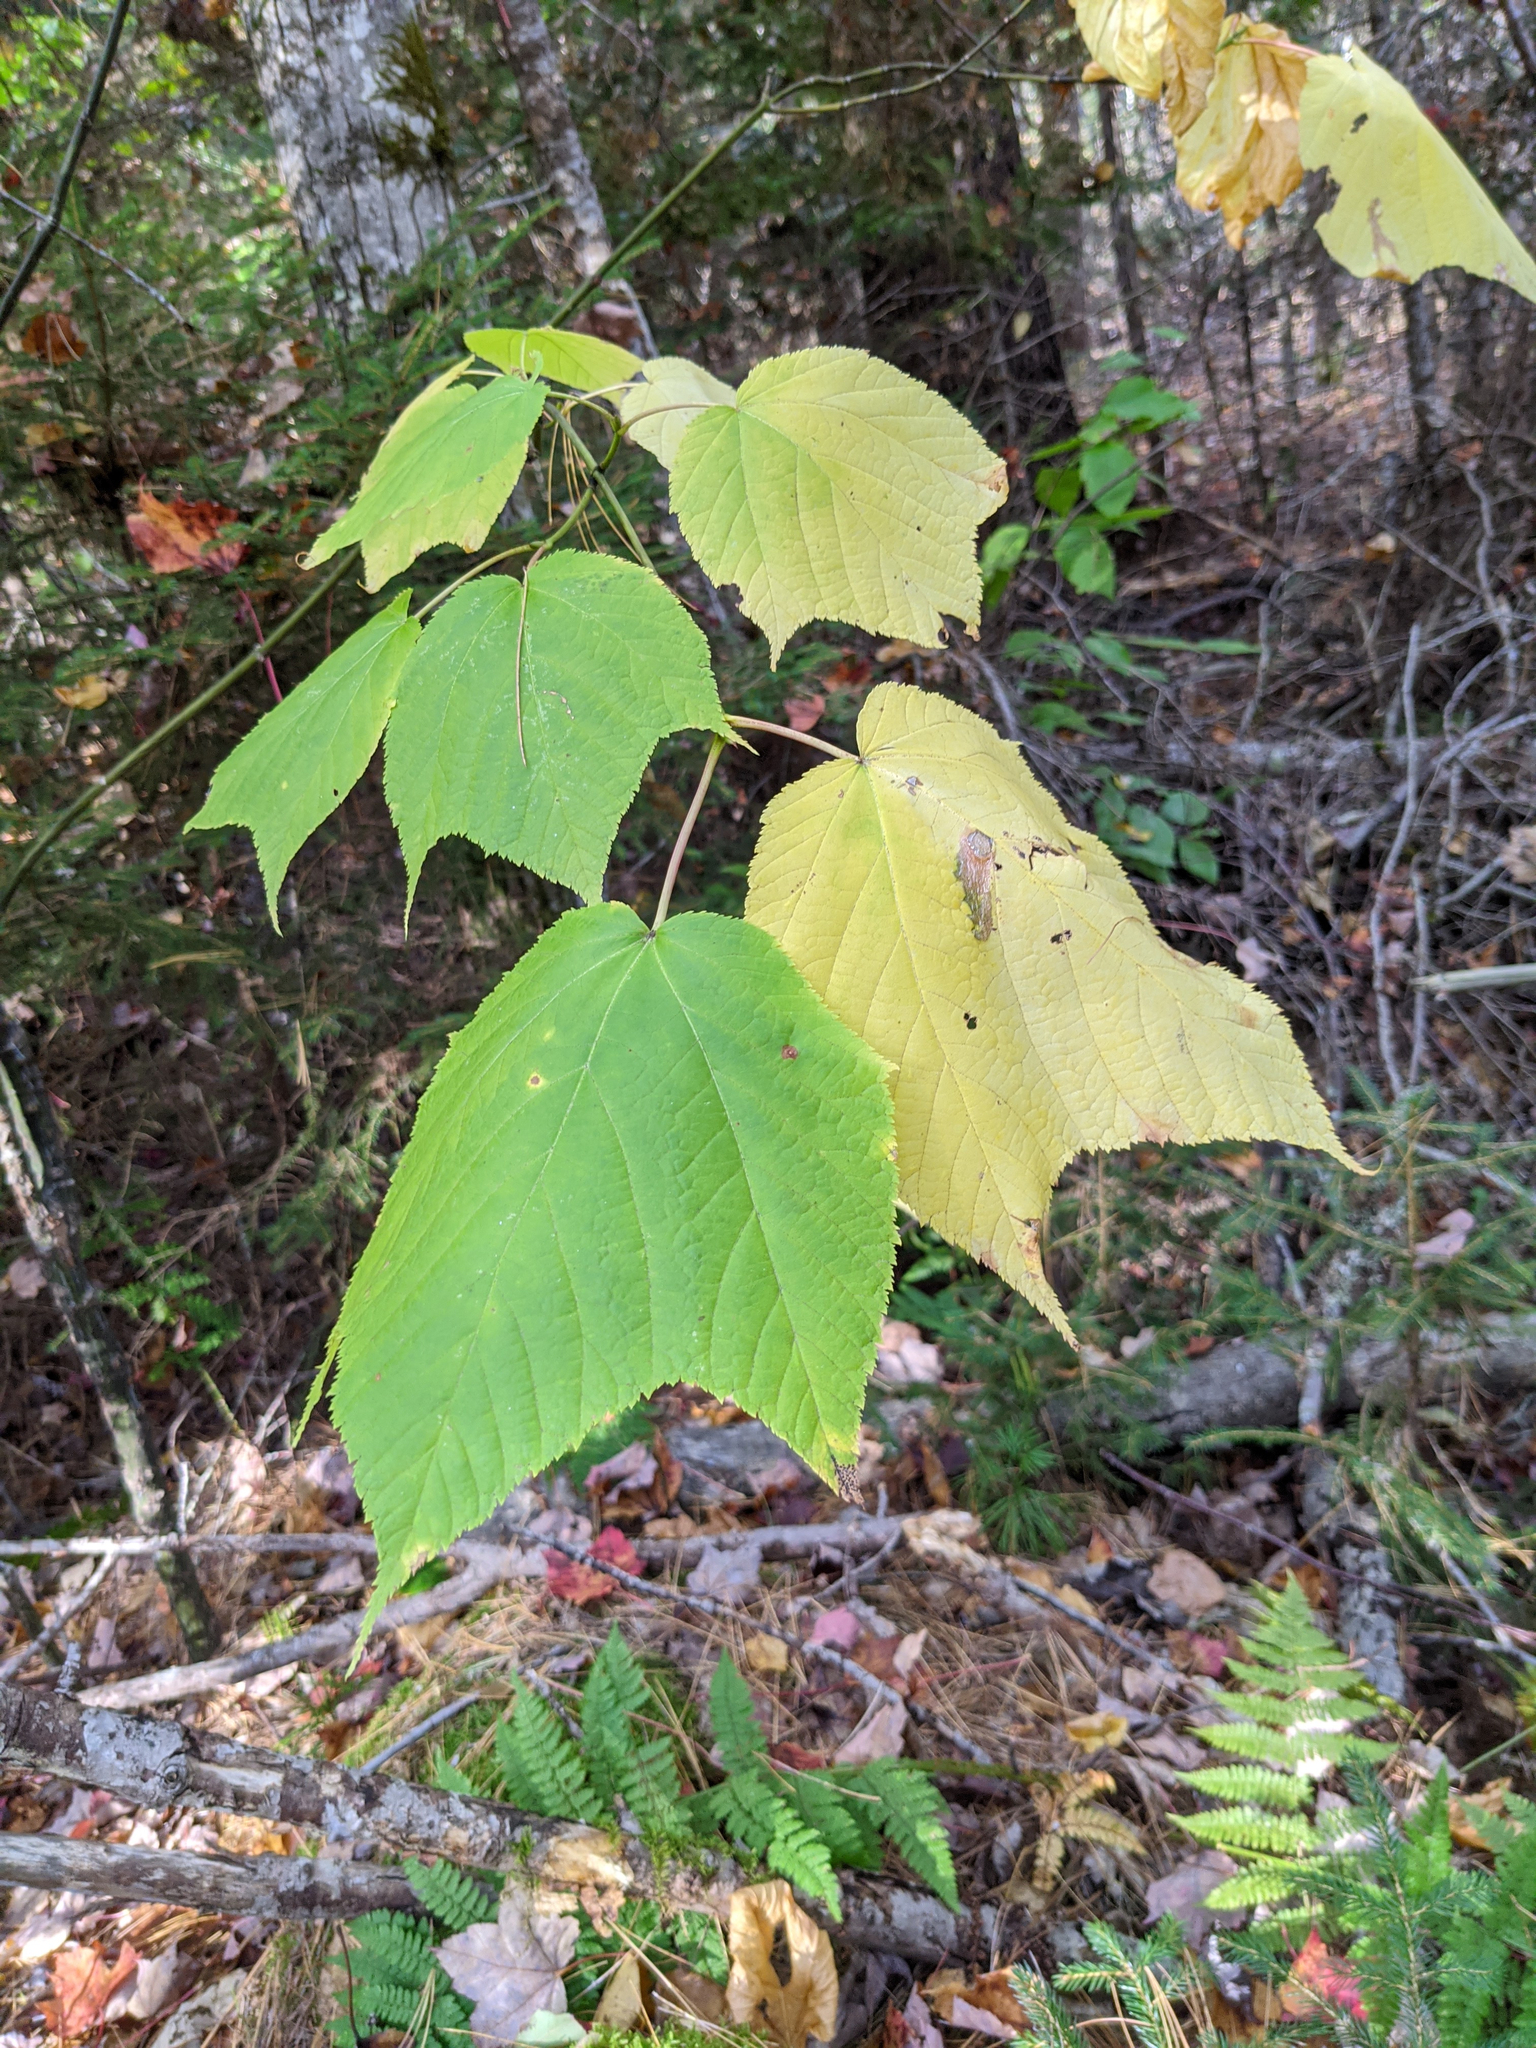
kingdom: Plantae
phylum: Tracheophyta
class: Magnoliopsida
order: Sapindales
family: Sapindaceae
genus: Acer
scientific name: Acer pensylvanicum
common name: Moosewood
